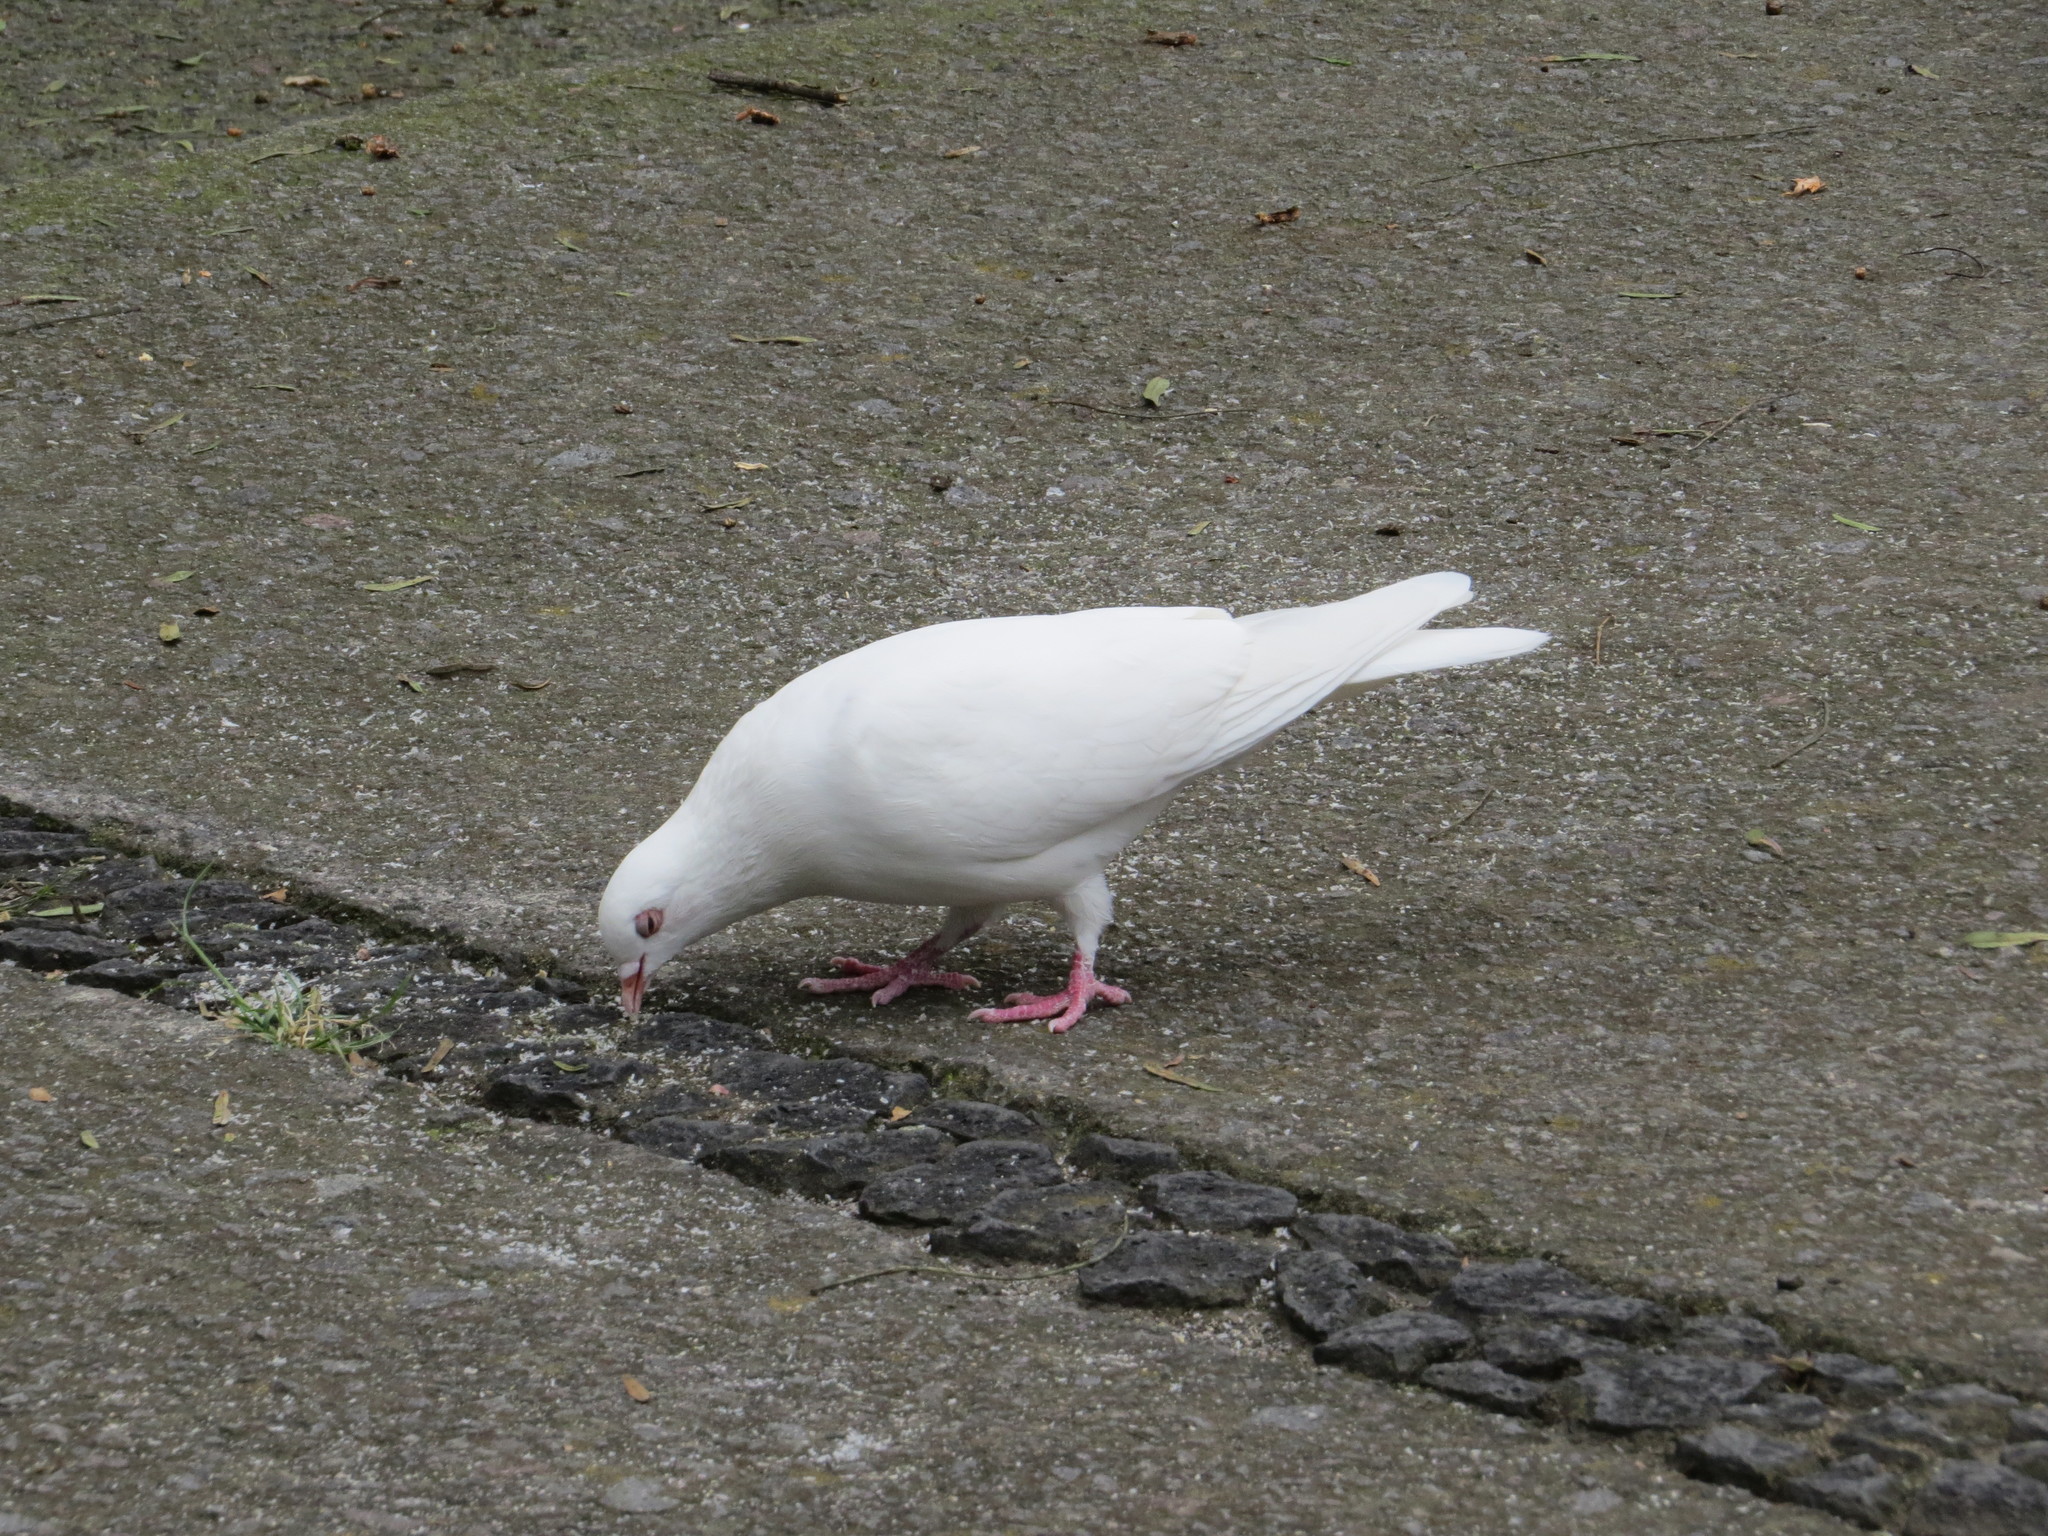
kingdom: Animalia
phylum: Chordata
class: Aves
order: Columbiformes
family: Columbidae
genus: Columba
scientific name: Columba livia
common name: Rock pigeon
